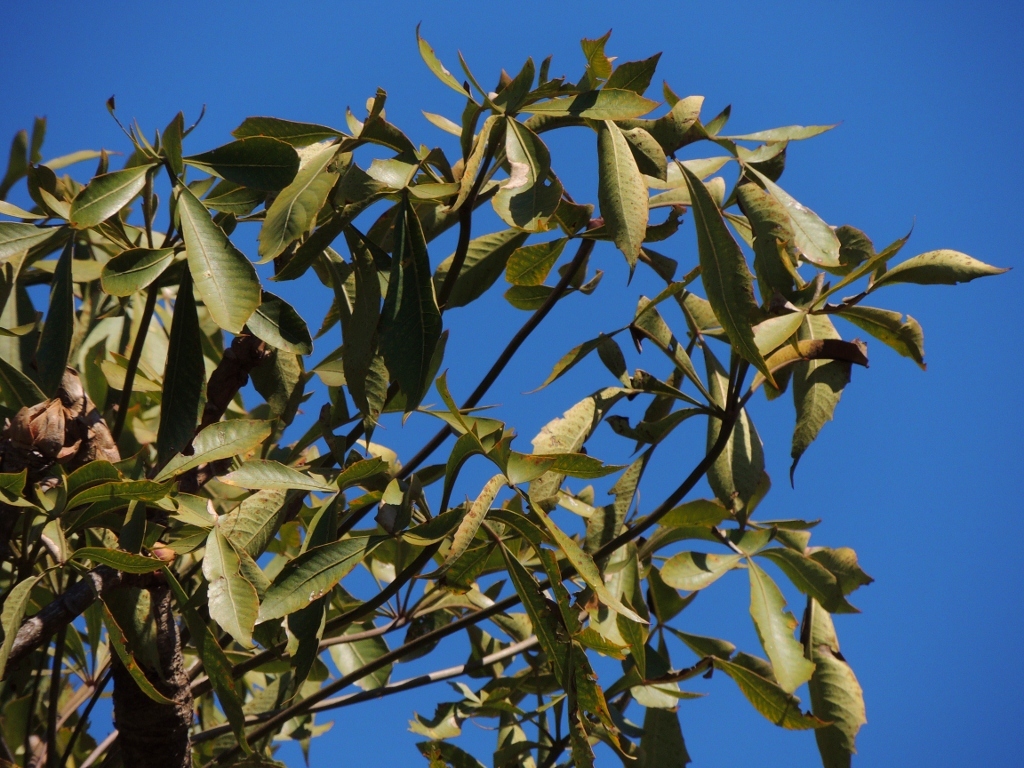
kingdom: Plantae
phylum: Tracheophyta
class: Magnoliopsida
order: Apiales
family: Araliaceae
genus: Cussonia
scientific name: Cussonia spicata
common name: Common cabbagetree
